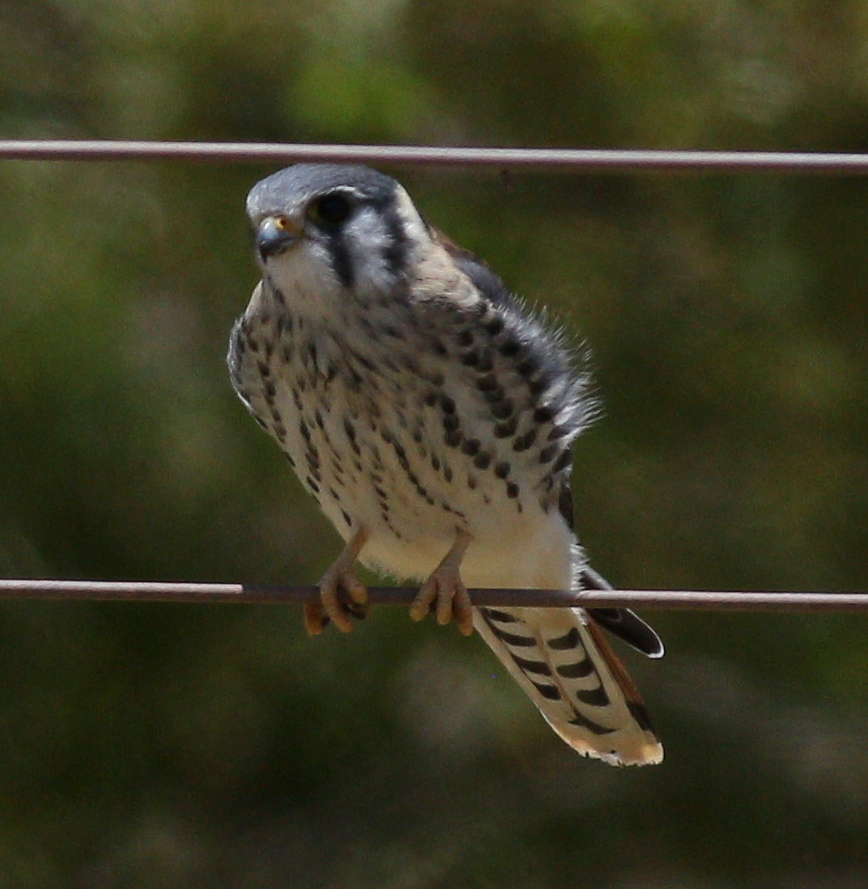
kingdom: Animalia
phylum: Chordata
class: Aves
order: Falconiformes
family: Falconidae
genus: Falco
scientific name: Falco sparverius
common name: American kestrel
